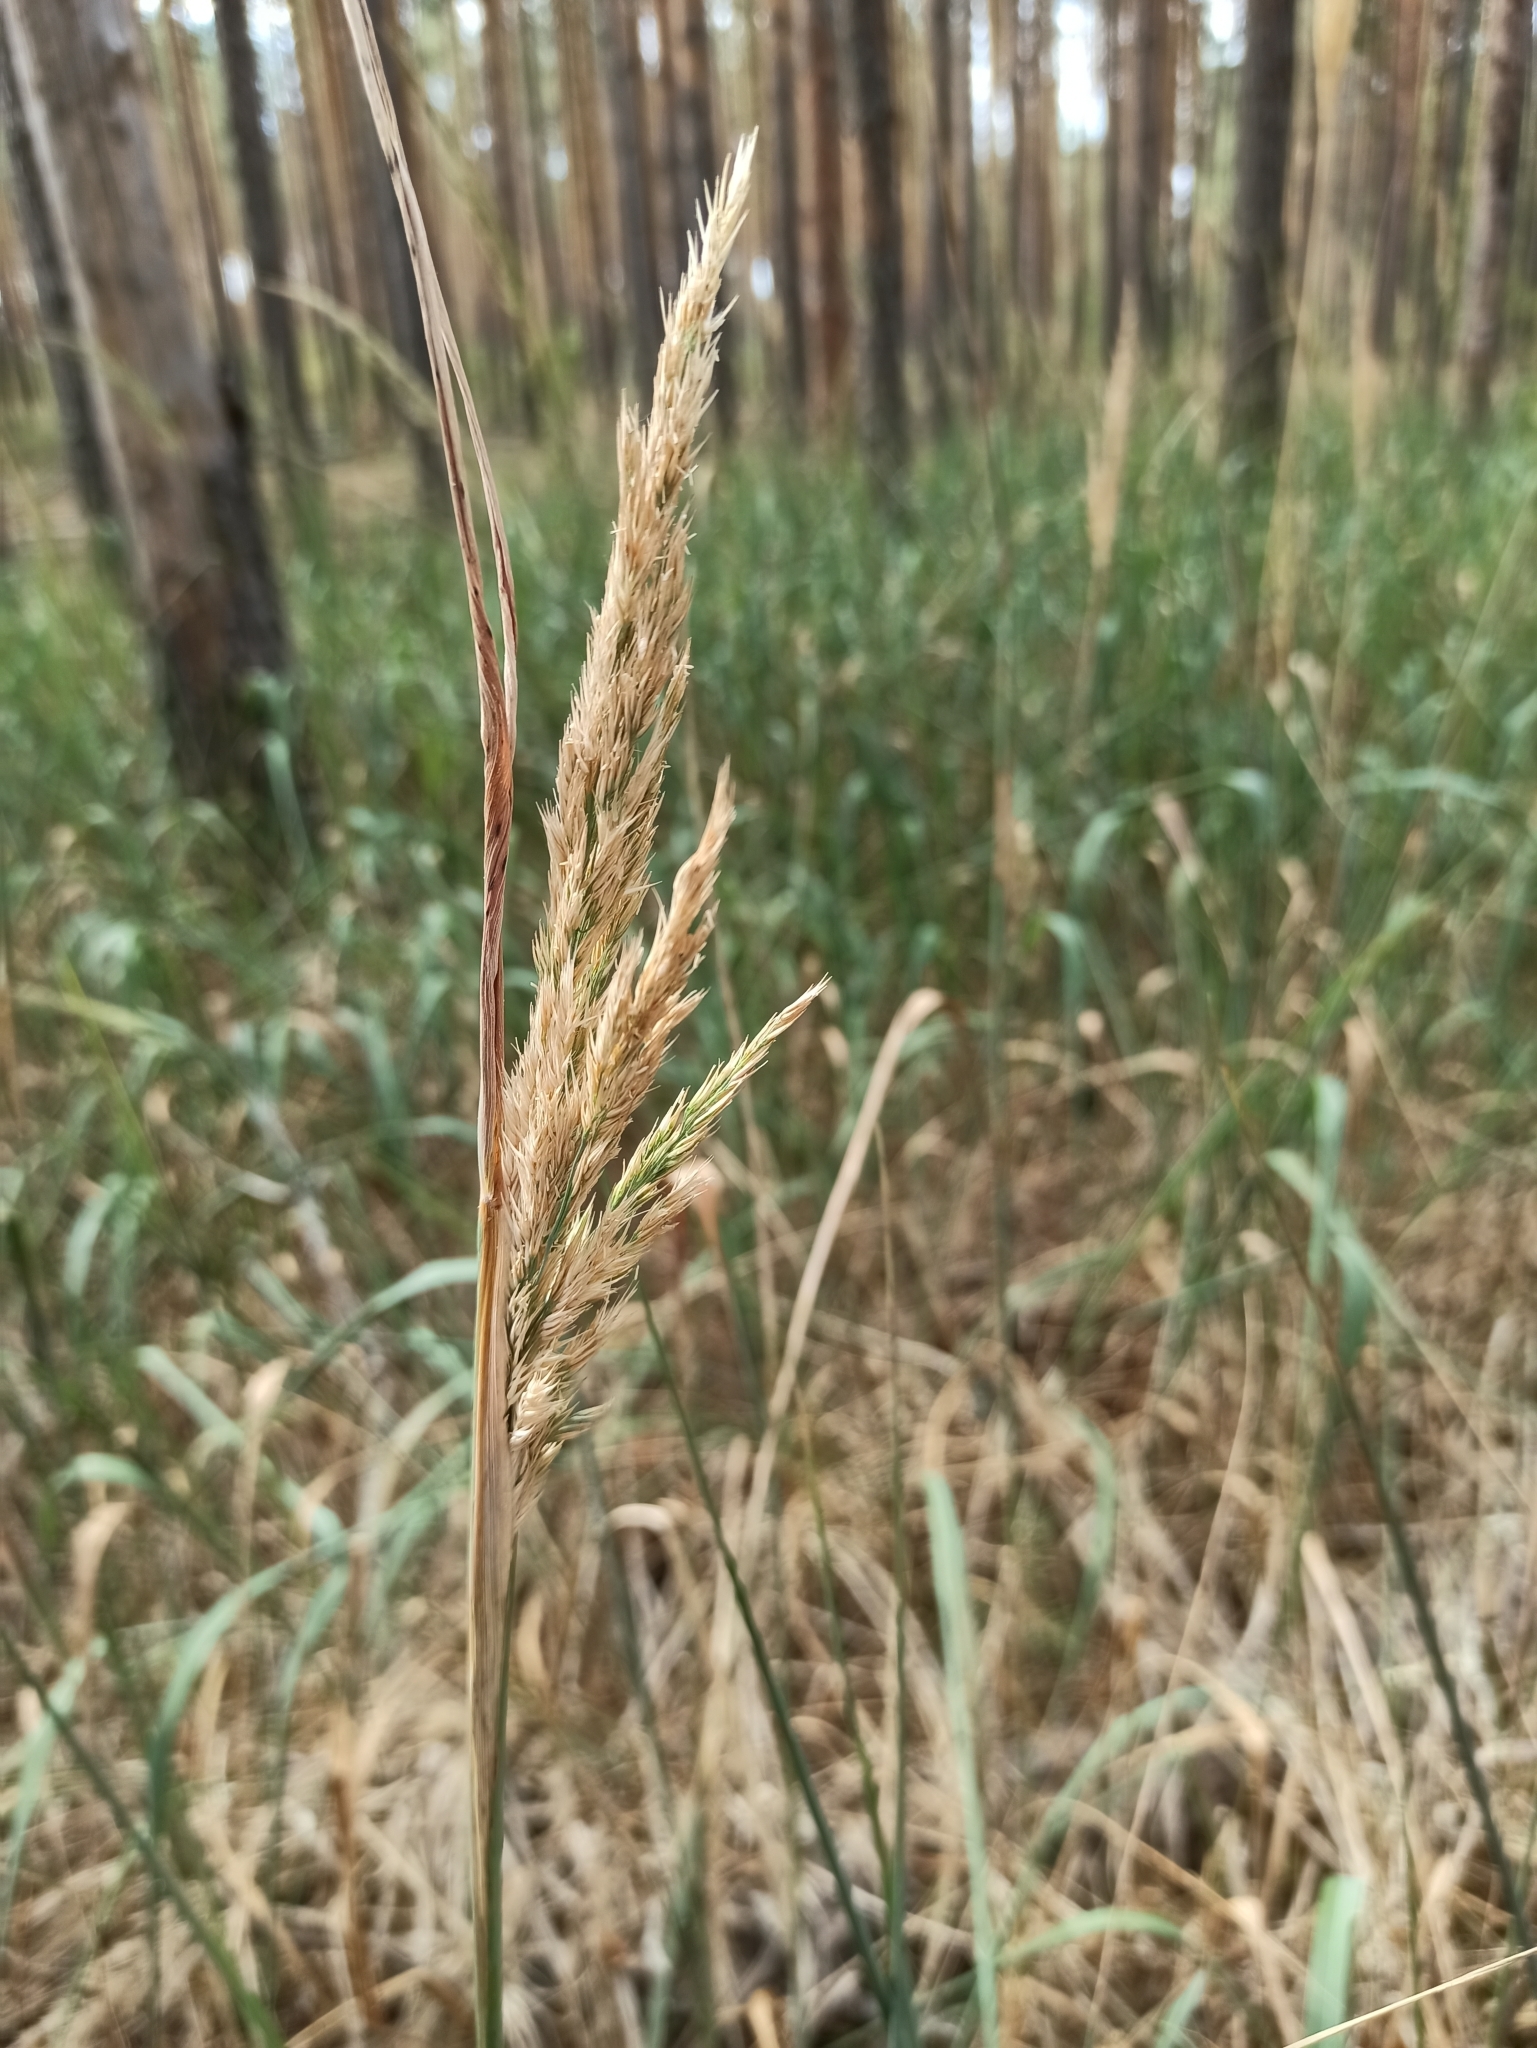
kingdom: Plantae
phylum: Tracheophyta
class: Liliopsida
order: Poales
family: Poaceae
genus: Calamagrostis
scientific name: Calamagrostis epigejos
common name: Wood small-reed
